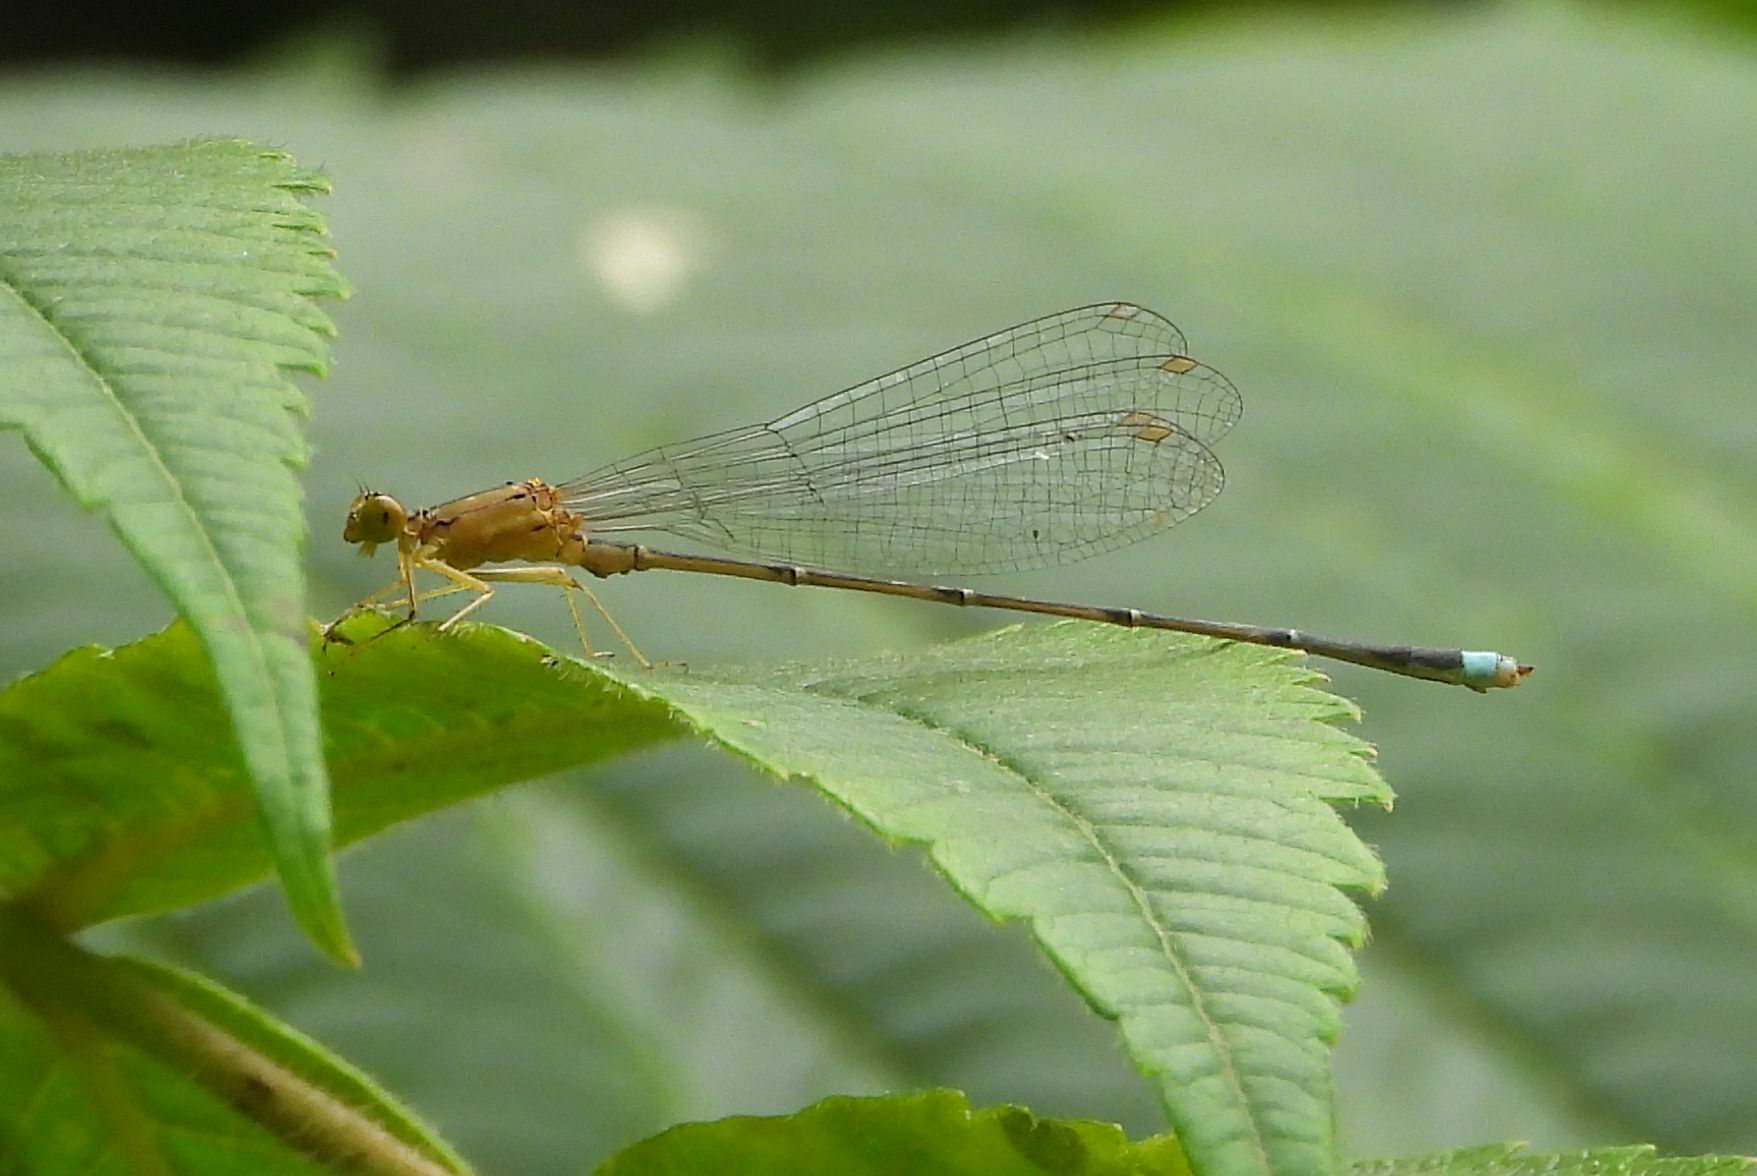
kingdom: Animalia
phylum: Arthropoda
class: Insecta
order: Odonata
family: Coenagrionidae
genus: Enallagma
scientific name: Enallagma vesperum
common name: Vesper bluet
